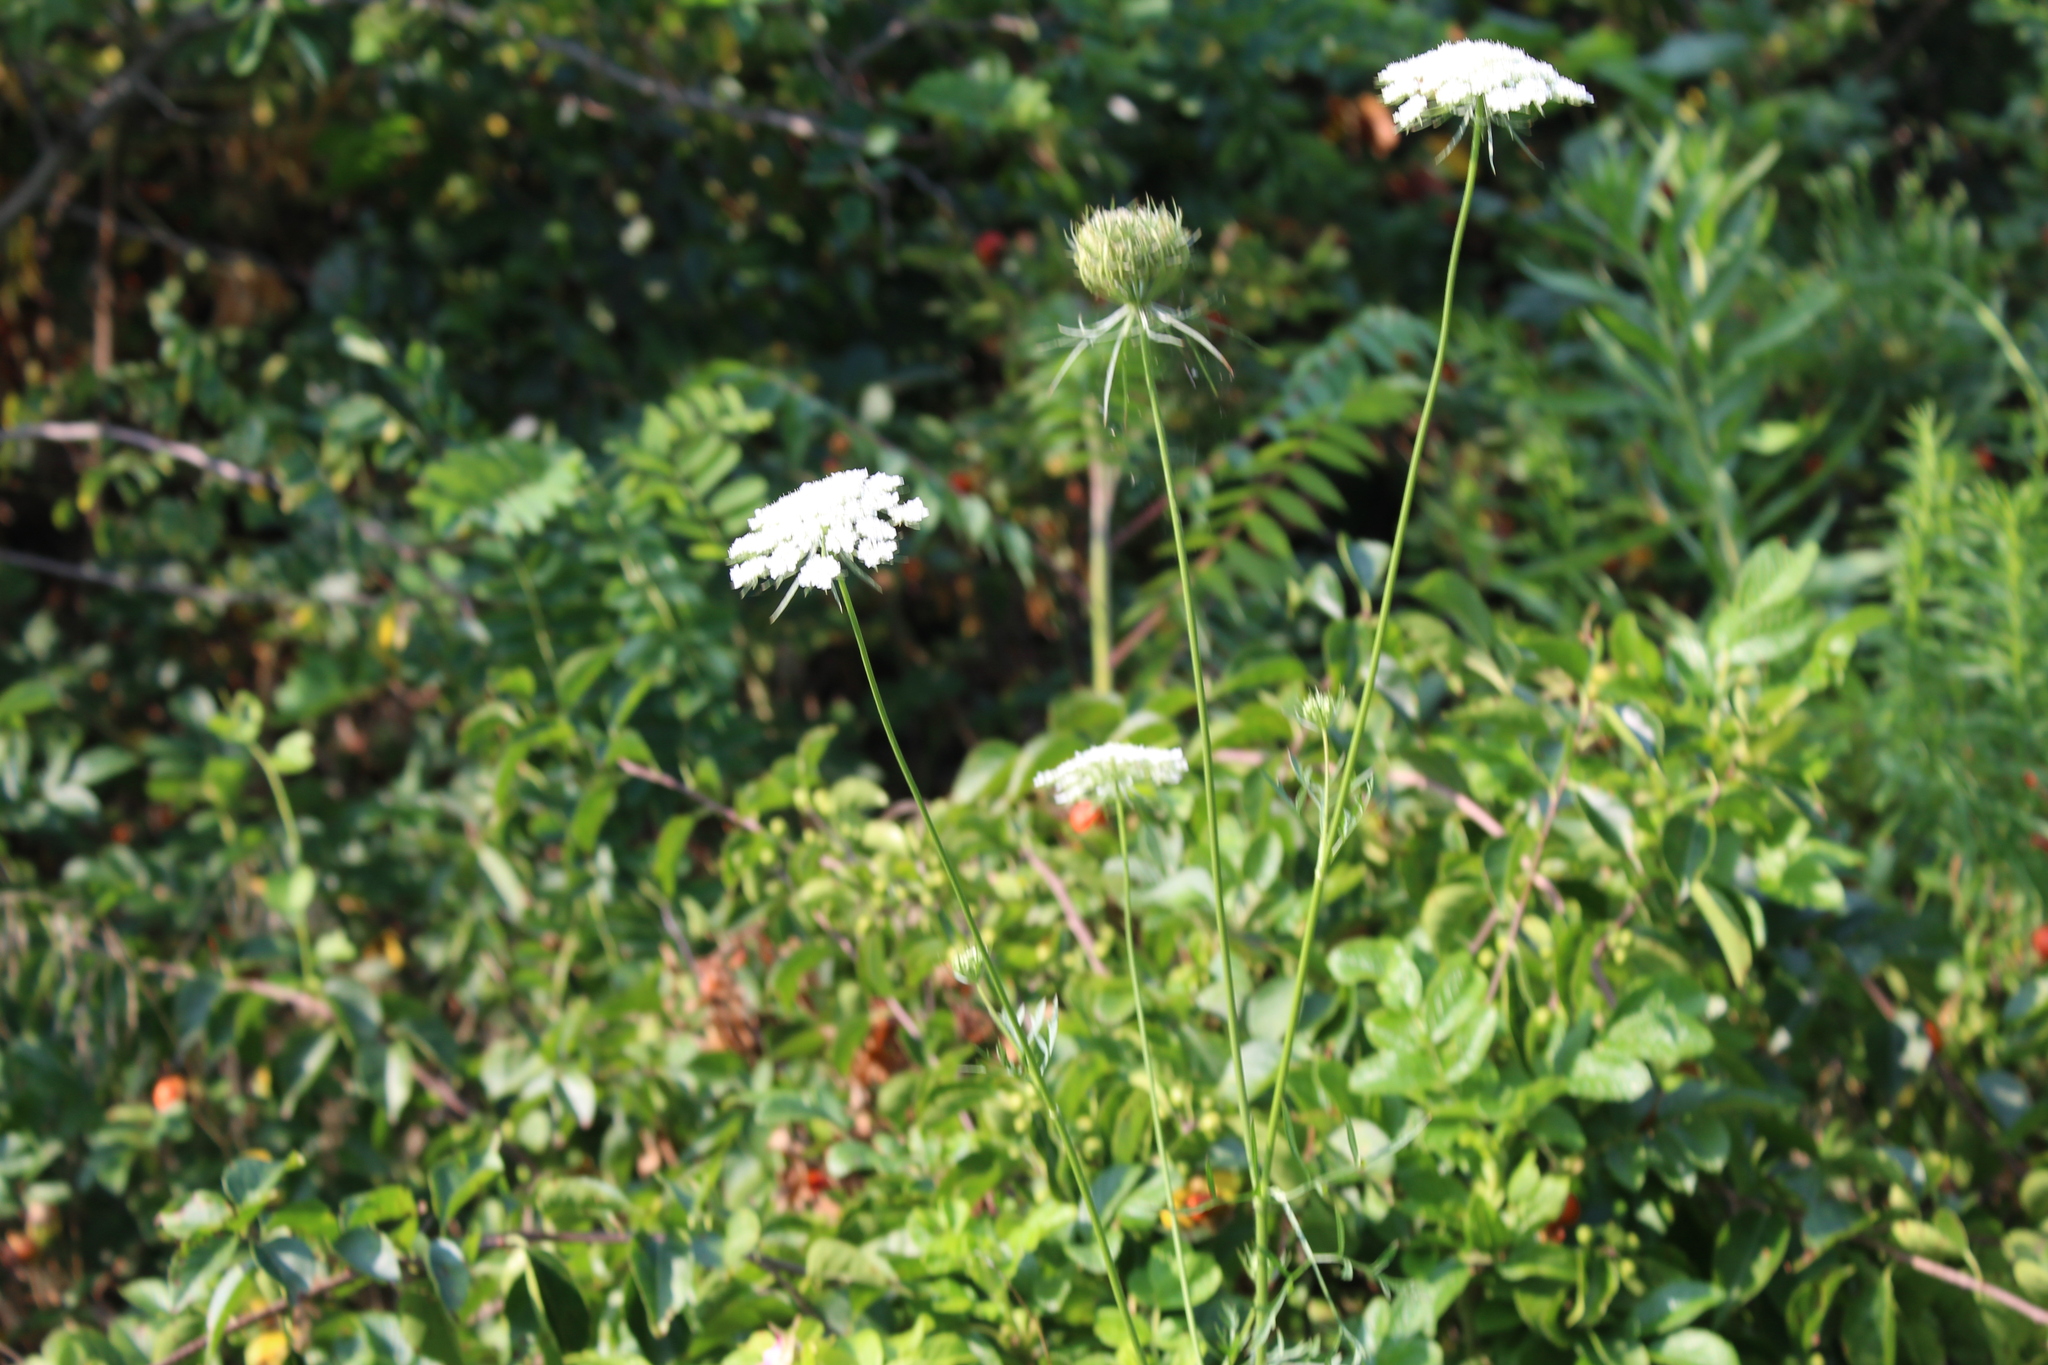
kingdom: Plantae
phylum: Tracheophyta
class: Magnoliopsida
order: Apiales
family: Apiaceae
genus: Daucus
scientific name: Daucus carota
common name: Wild carrot
